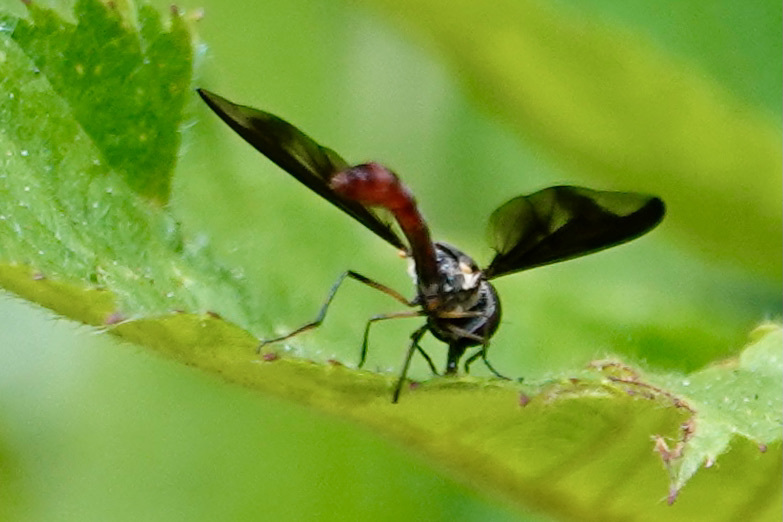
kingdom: Animalia
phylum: Arthropoda
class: Insecta
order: Diptera
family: Syrphidae
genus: Ocyptamus
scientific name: Ocyptamus fuscipennis
